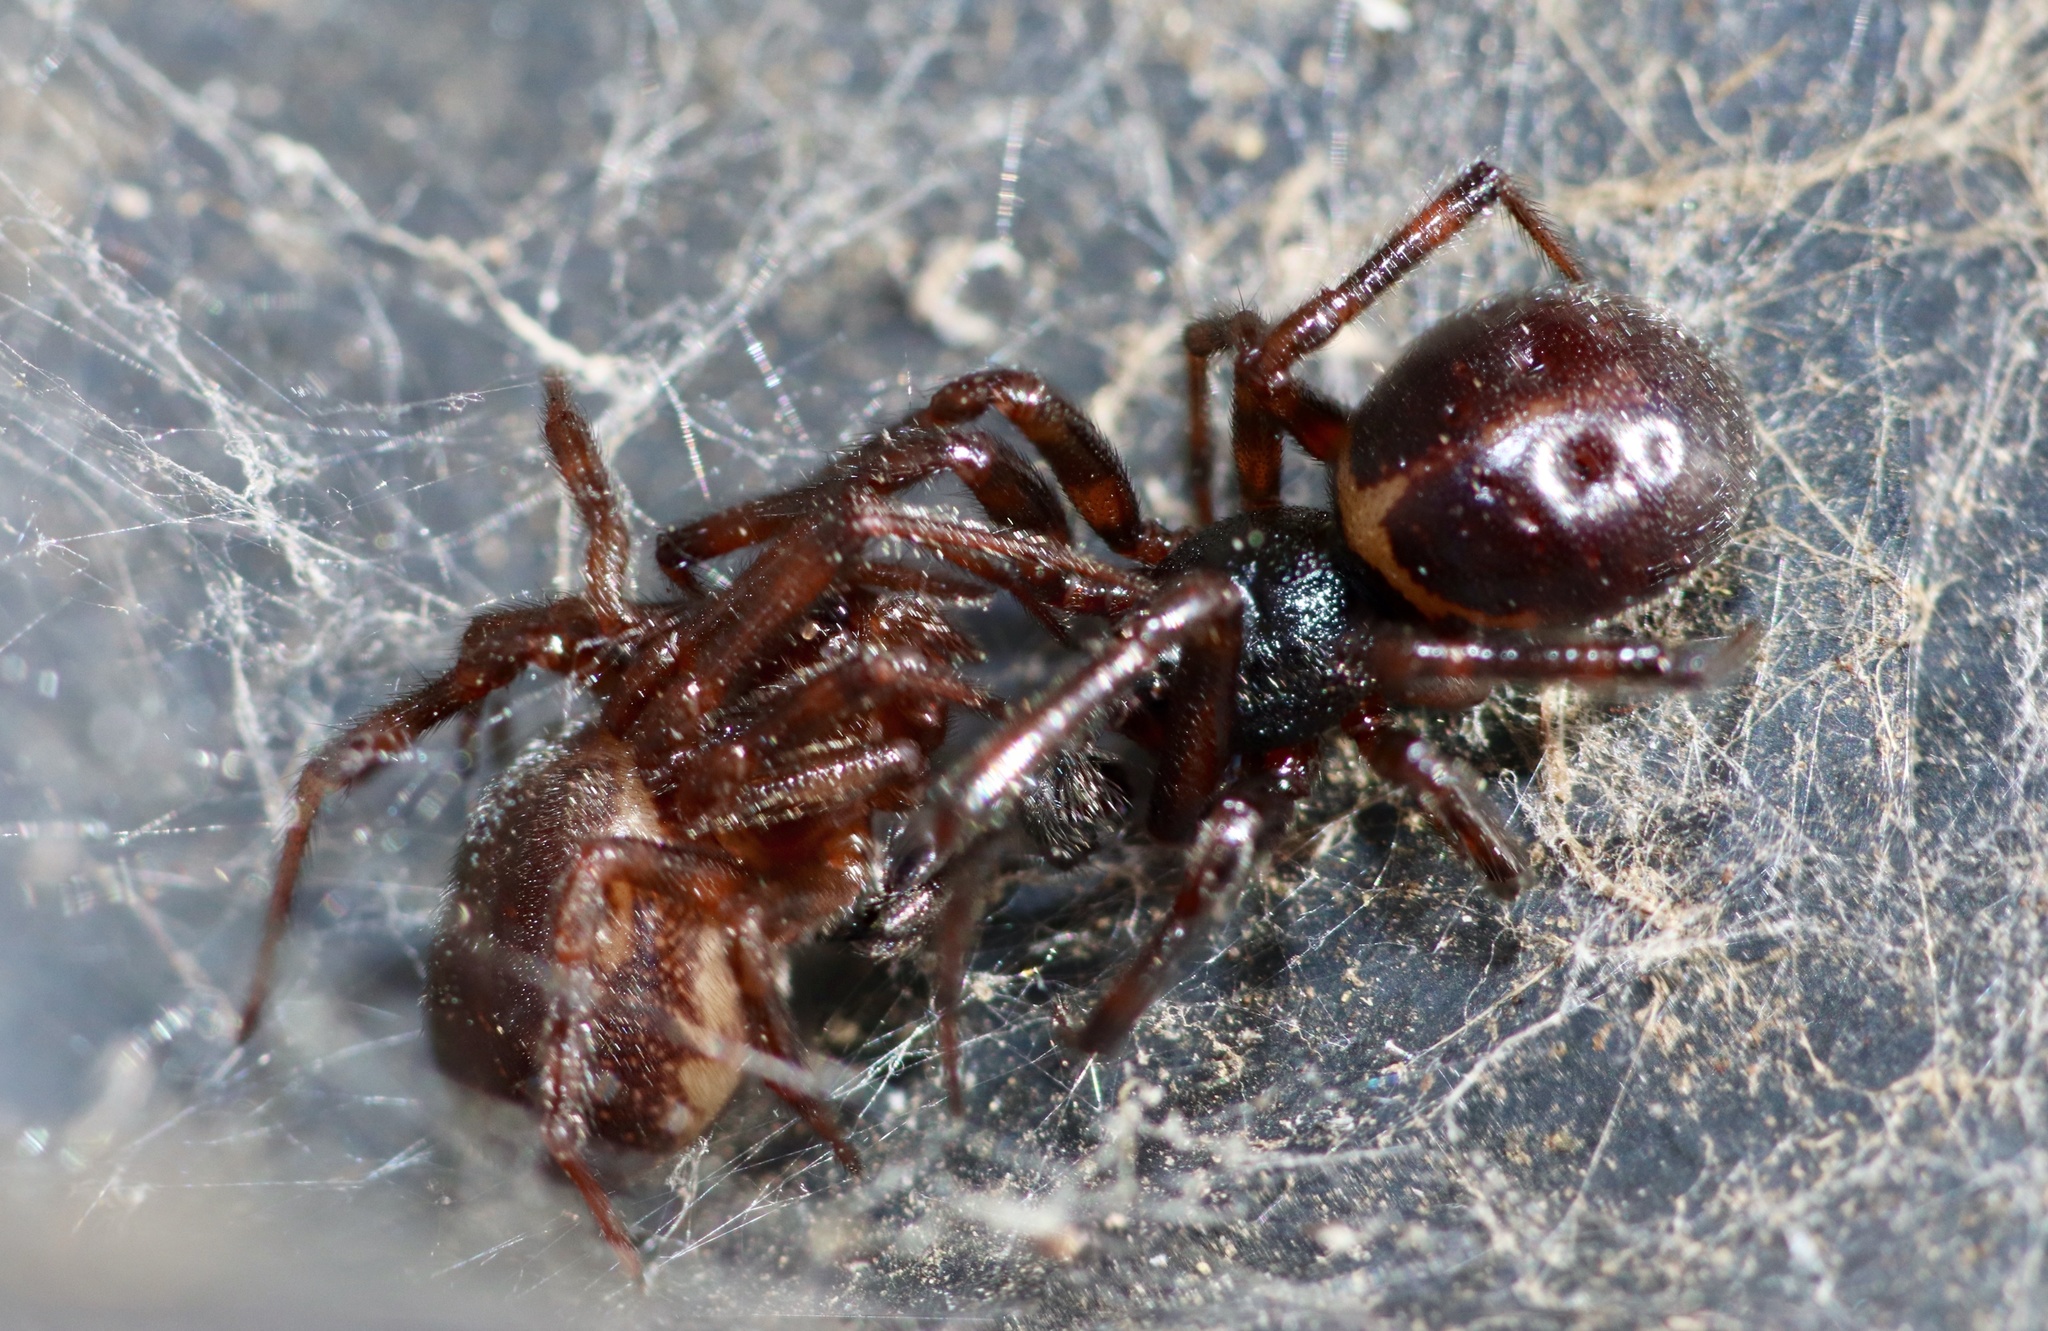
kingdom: Animalia
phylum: Arthropoda
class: Arachnida
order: Araneae
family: Theridiidae
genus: Steatoda
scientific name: Steatoda borealis
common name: Boreal combfoot
